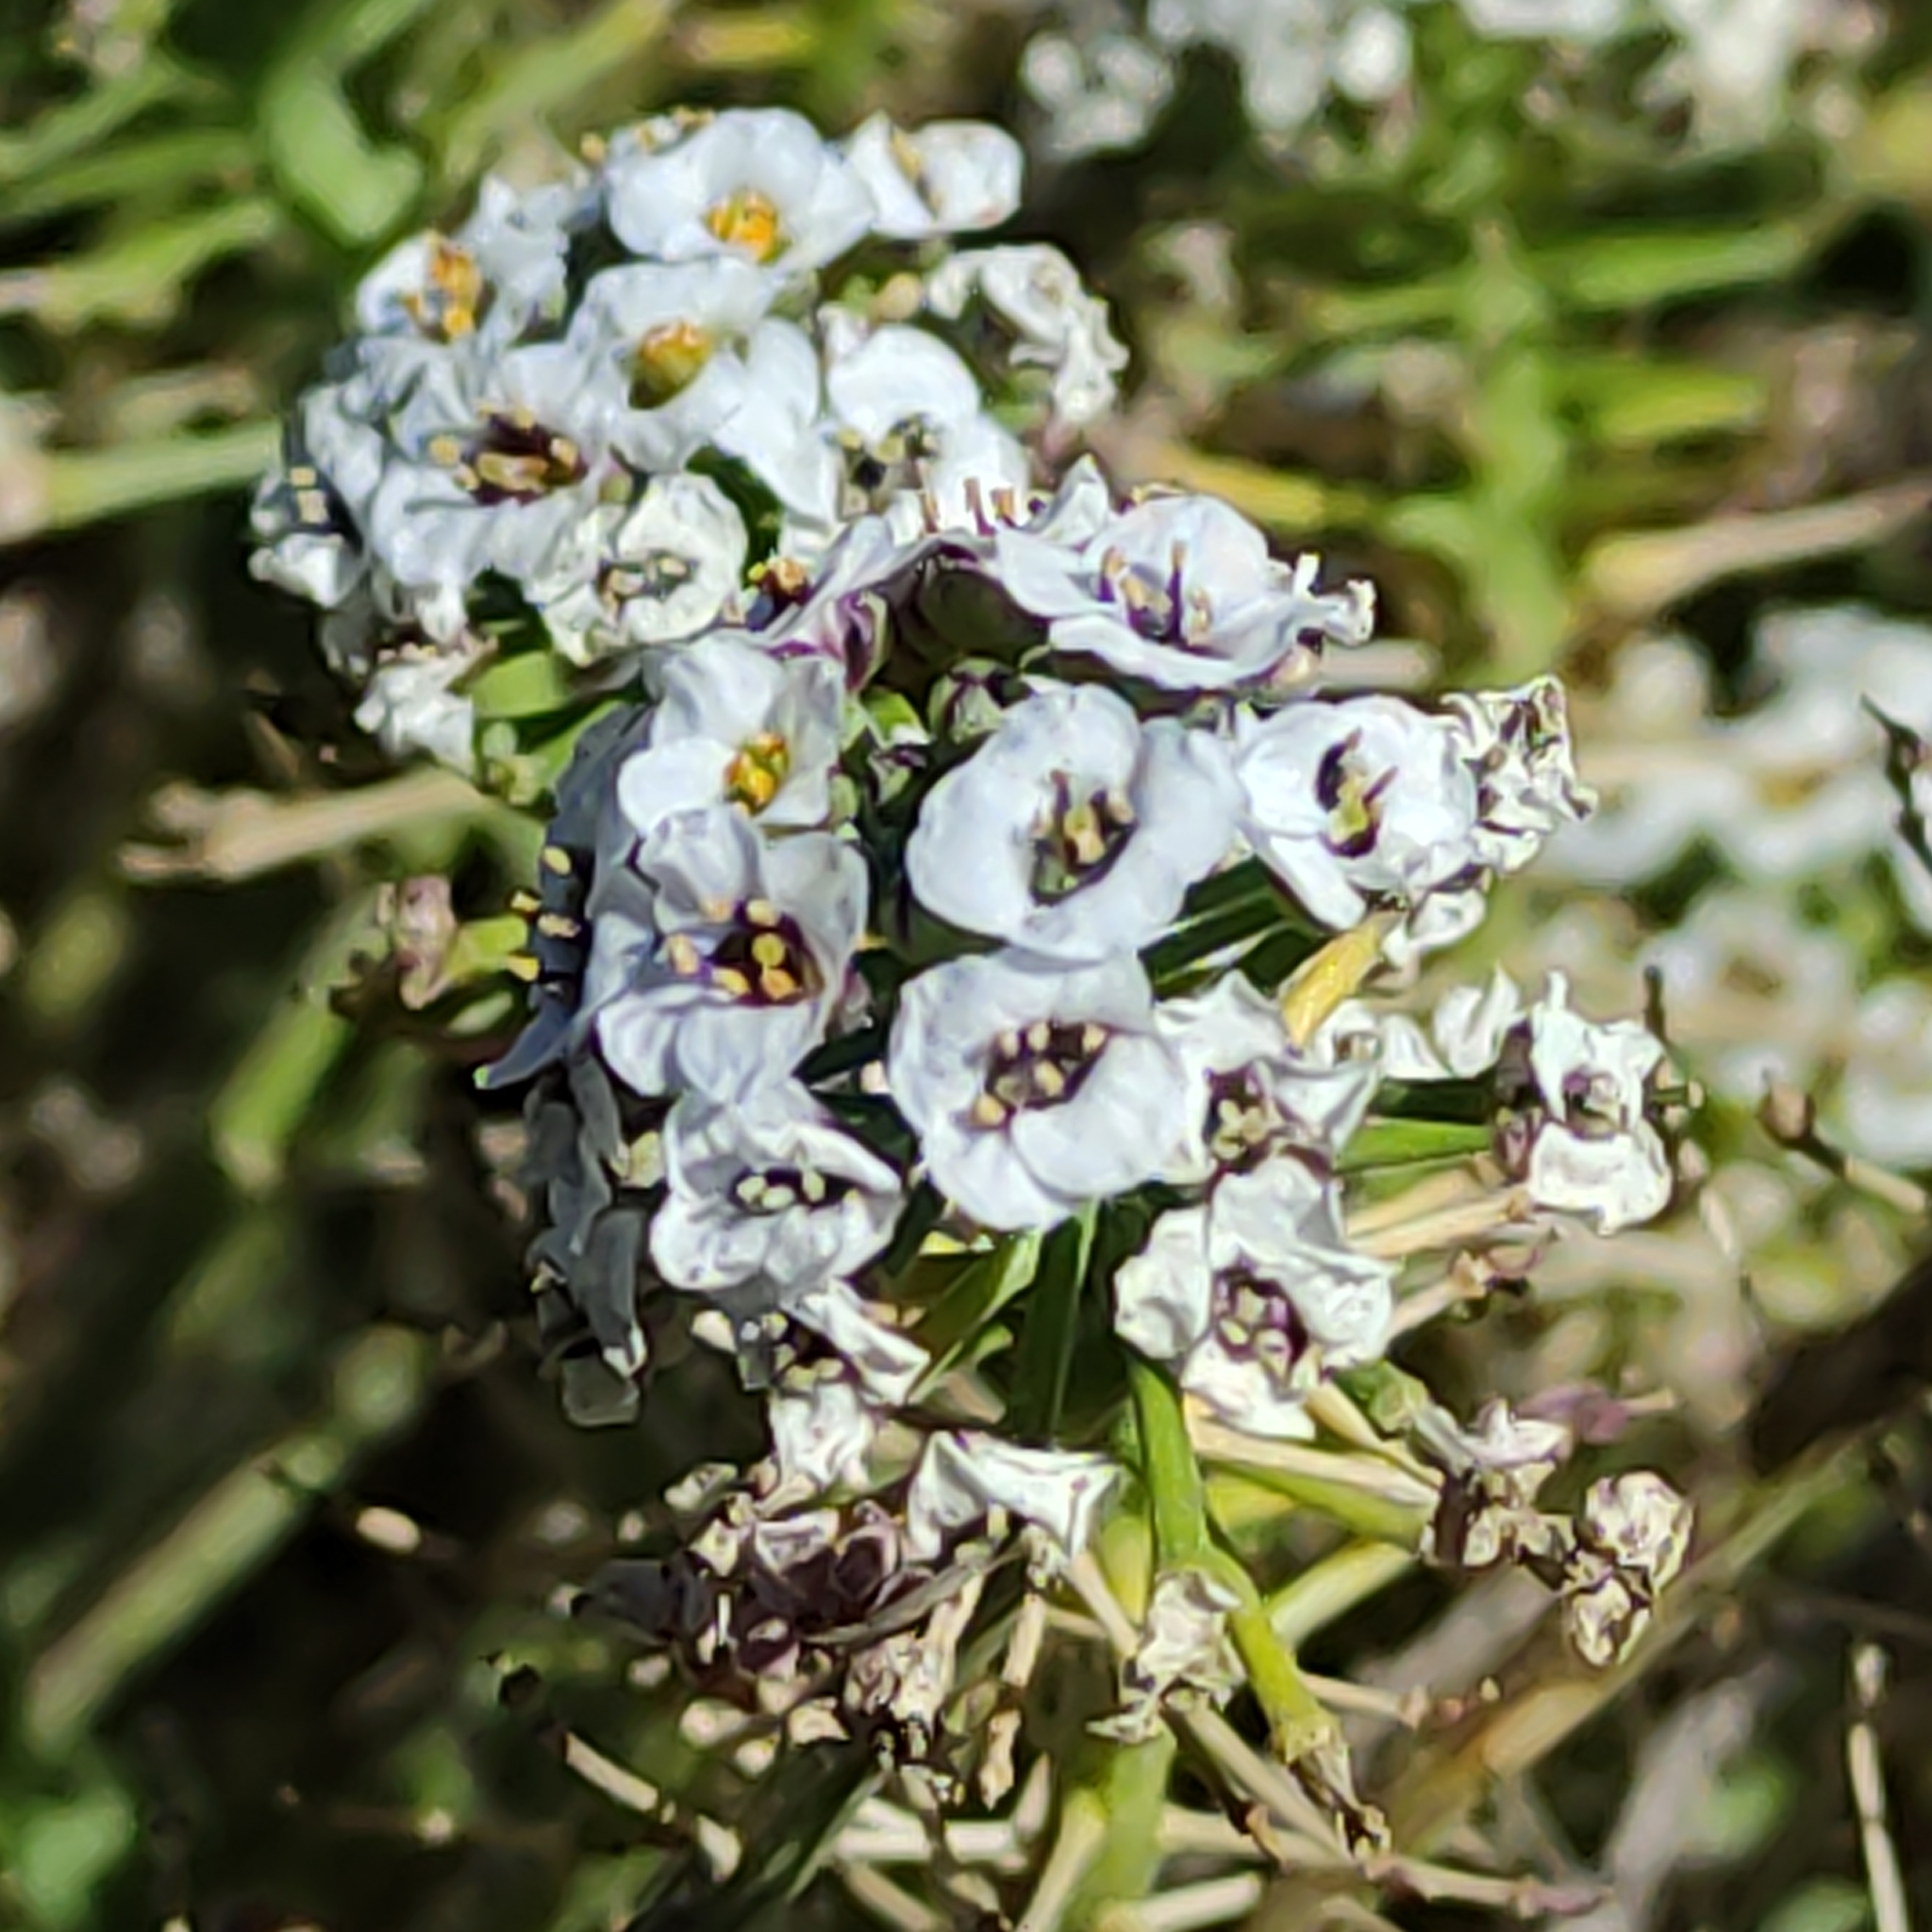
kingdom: Plantae
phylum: Tracheophyta
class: Magnoliopsida
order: Brassicales
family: Brassicaceae
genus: Lobularia
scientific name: Lobularia maritima
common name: Sweet alison
